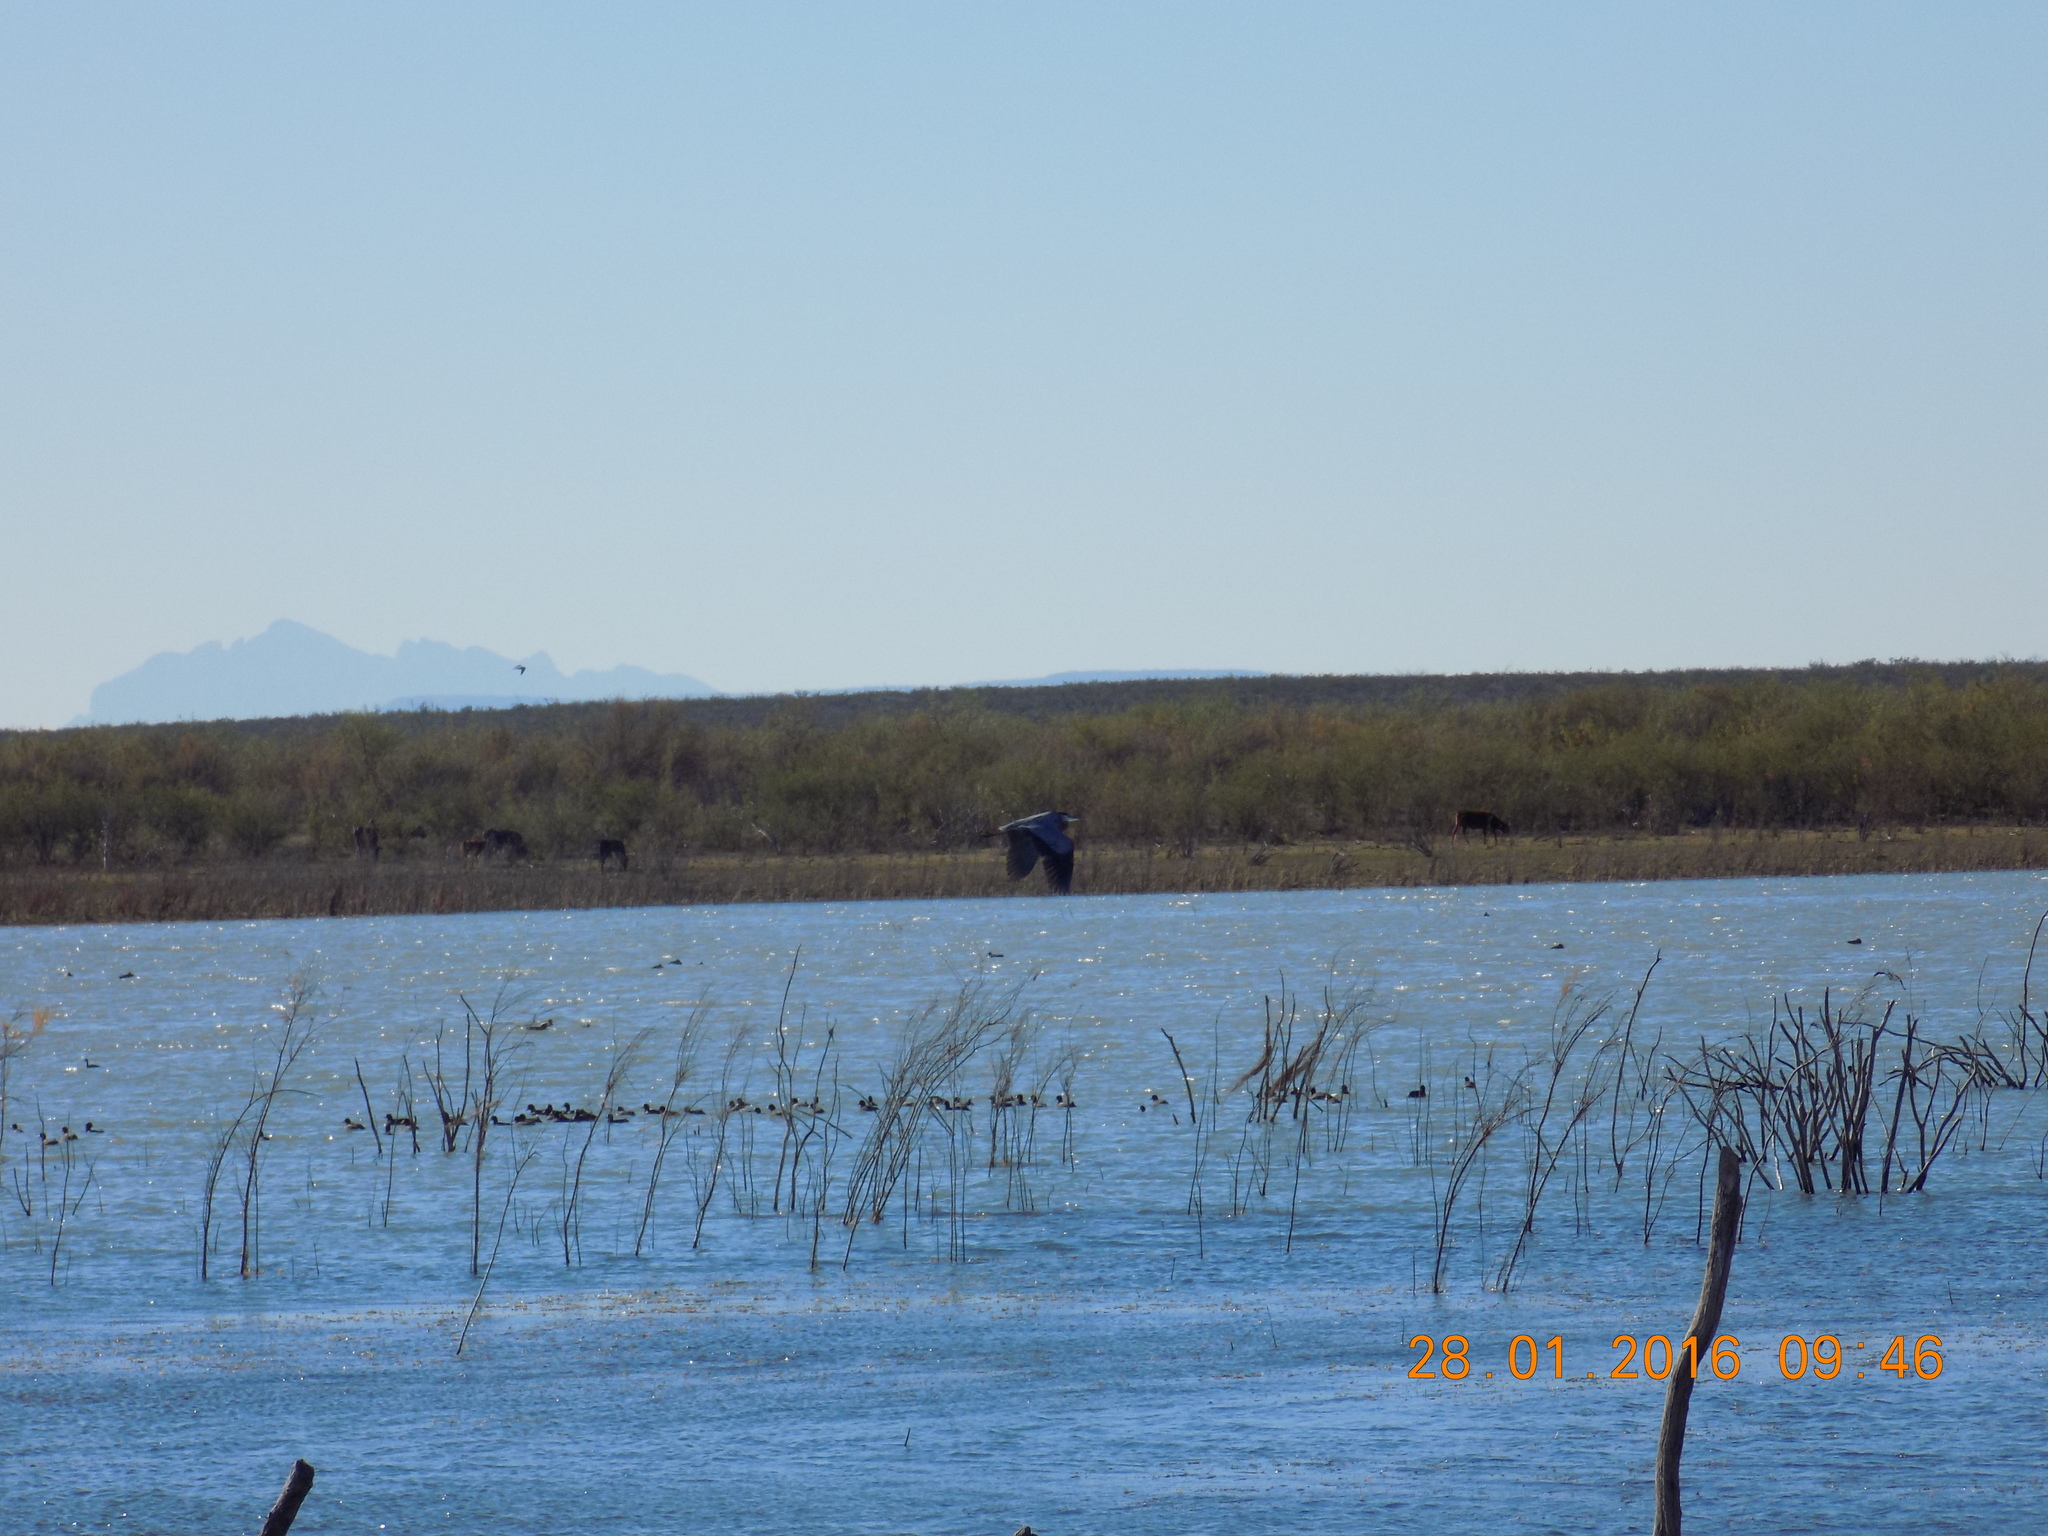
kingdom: Animalia
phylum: Chordata
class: Aves
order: Pelecaniformes
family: Ardeidae
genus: Ardea
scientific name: Ardea herodias
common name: Great blue heron
